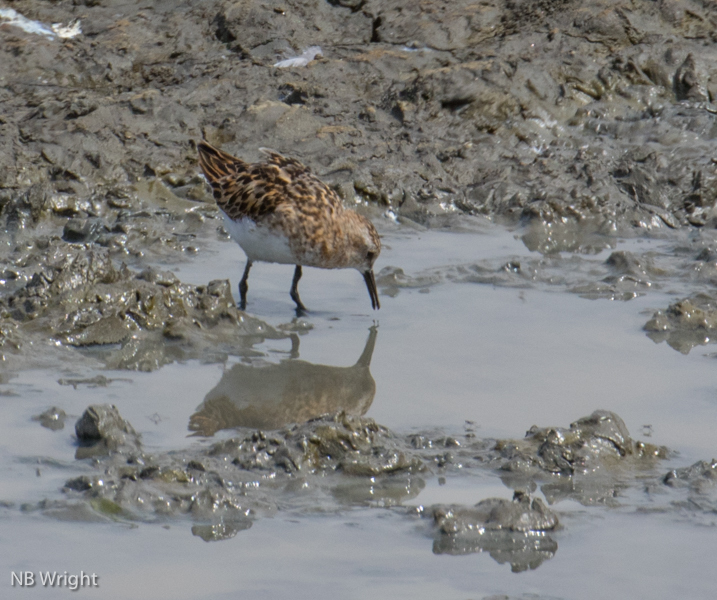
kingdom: Animalia
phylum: Chordata
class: Aves
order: Charadriiformes
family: Scolopacidae
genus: Calidris
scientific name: Calidris minuta
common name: Little stint
